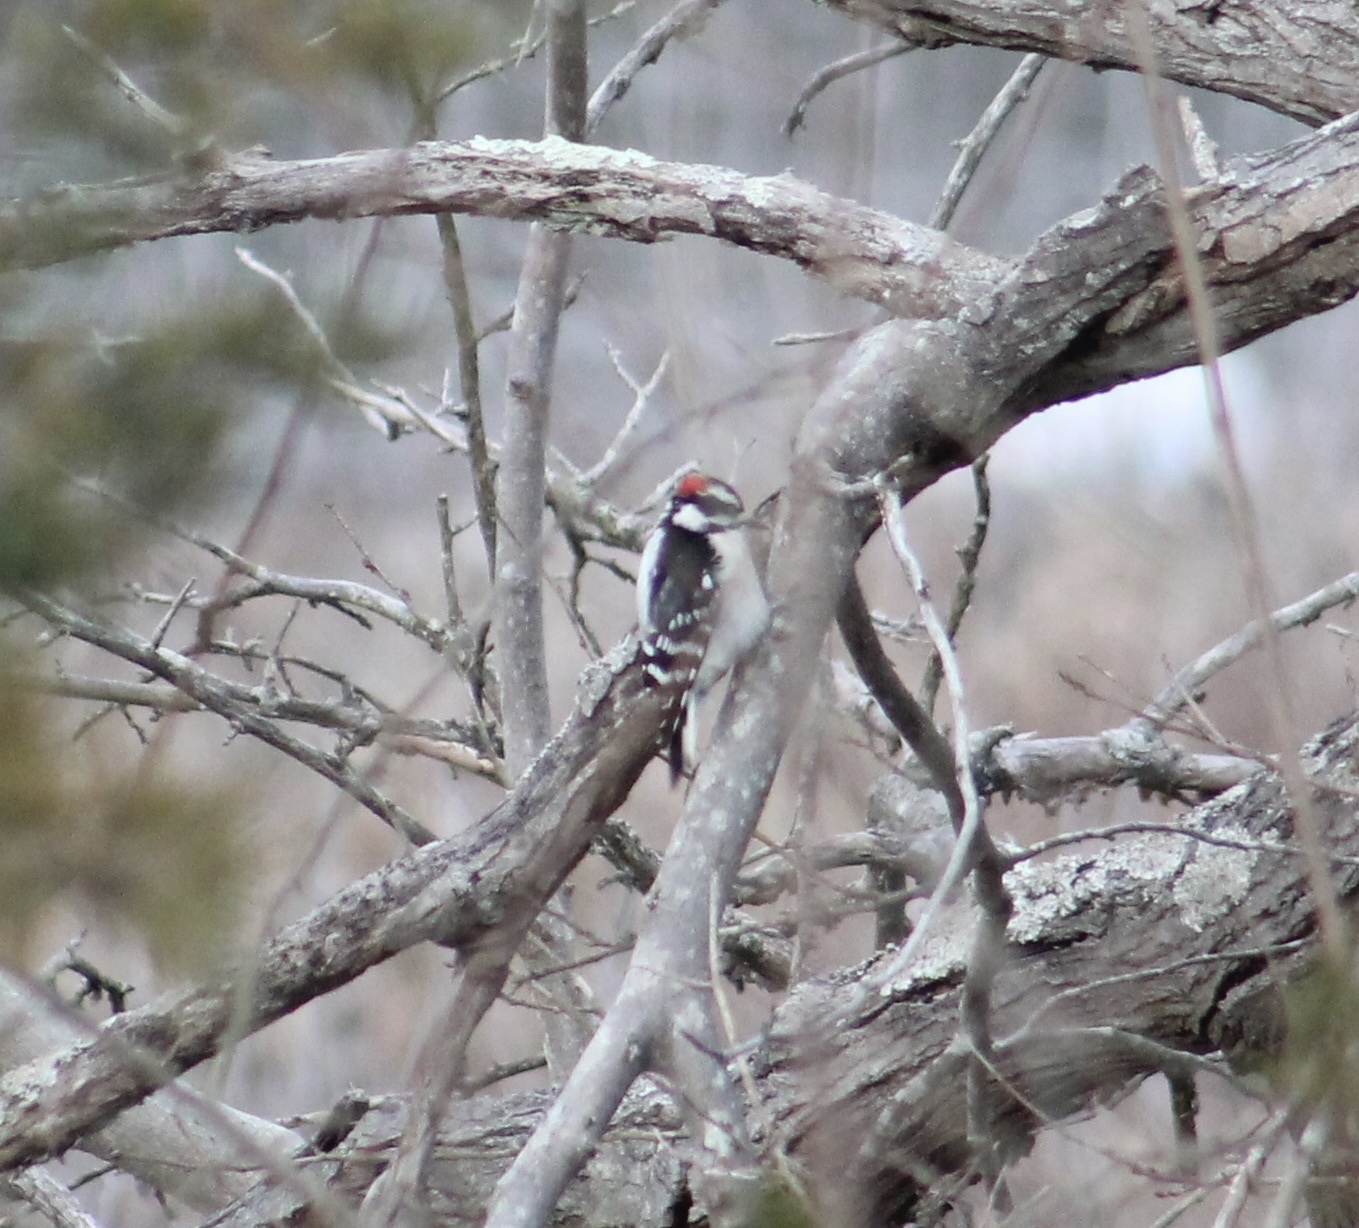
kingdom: Animalia
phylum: Chordata
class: Aves
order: Piciformes
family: Picidae
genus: Dryobates
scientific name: Dryobates pubescens
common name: Downy woodpecker
